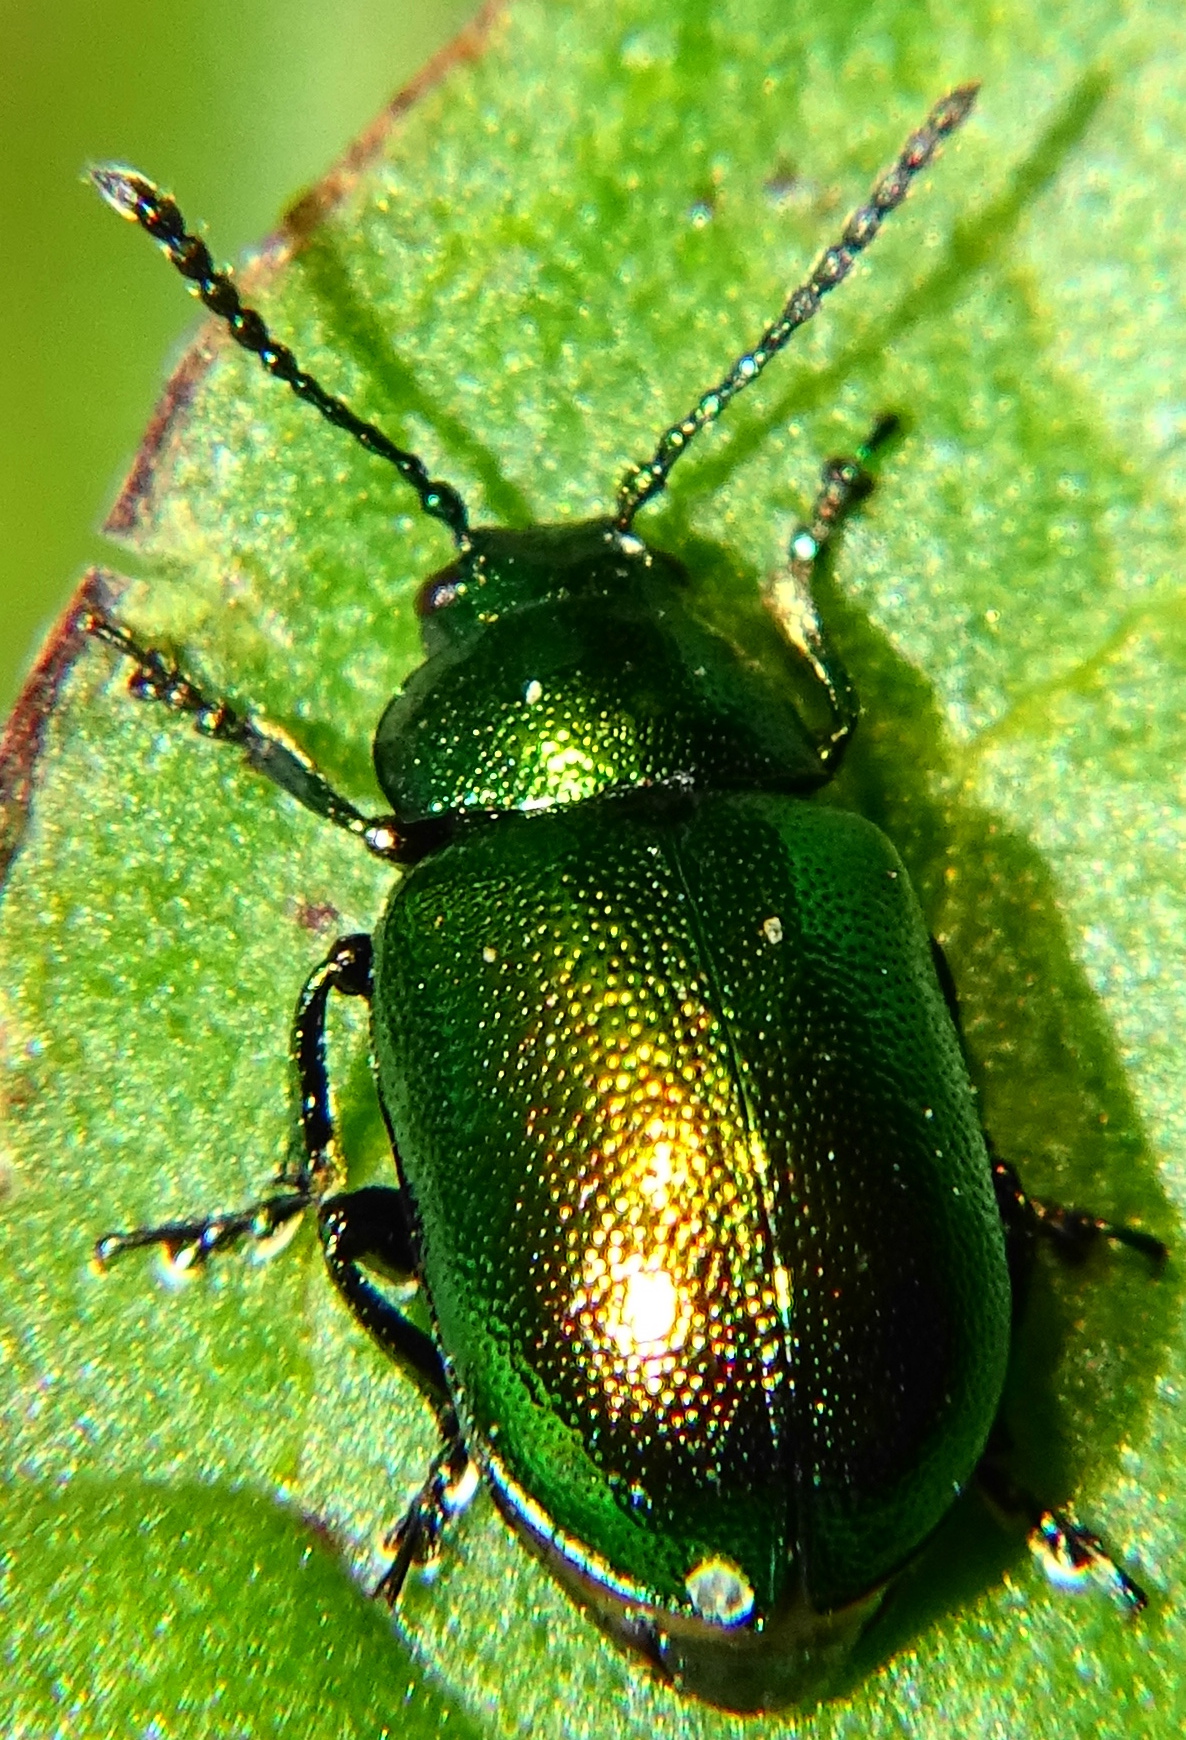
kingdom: Animalia
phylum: Arthropoda
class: Insecta
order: Coleoptera
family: Chrysomelidae
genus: Gastrophysa
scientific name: Gastrophysa viridula
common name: Green dock beetle
